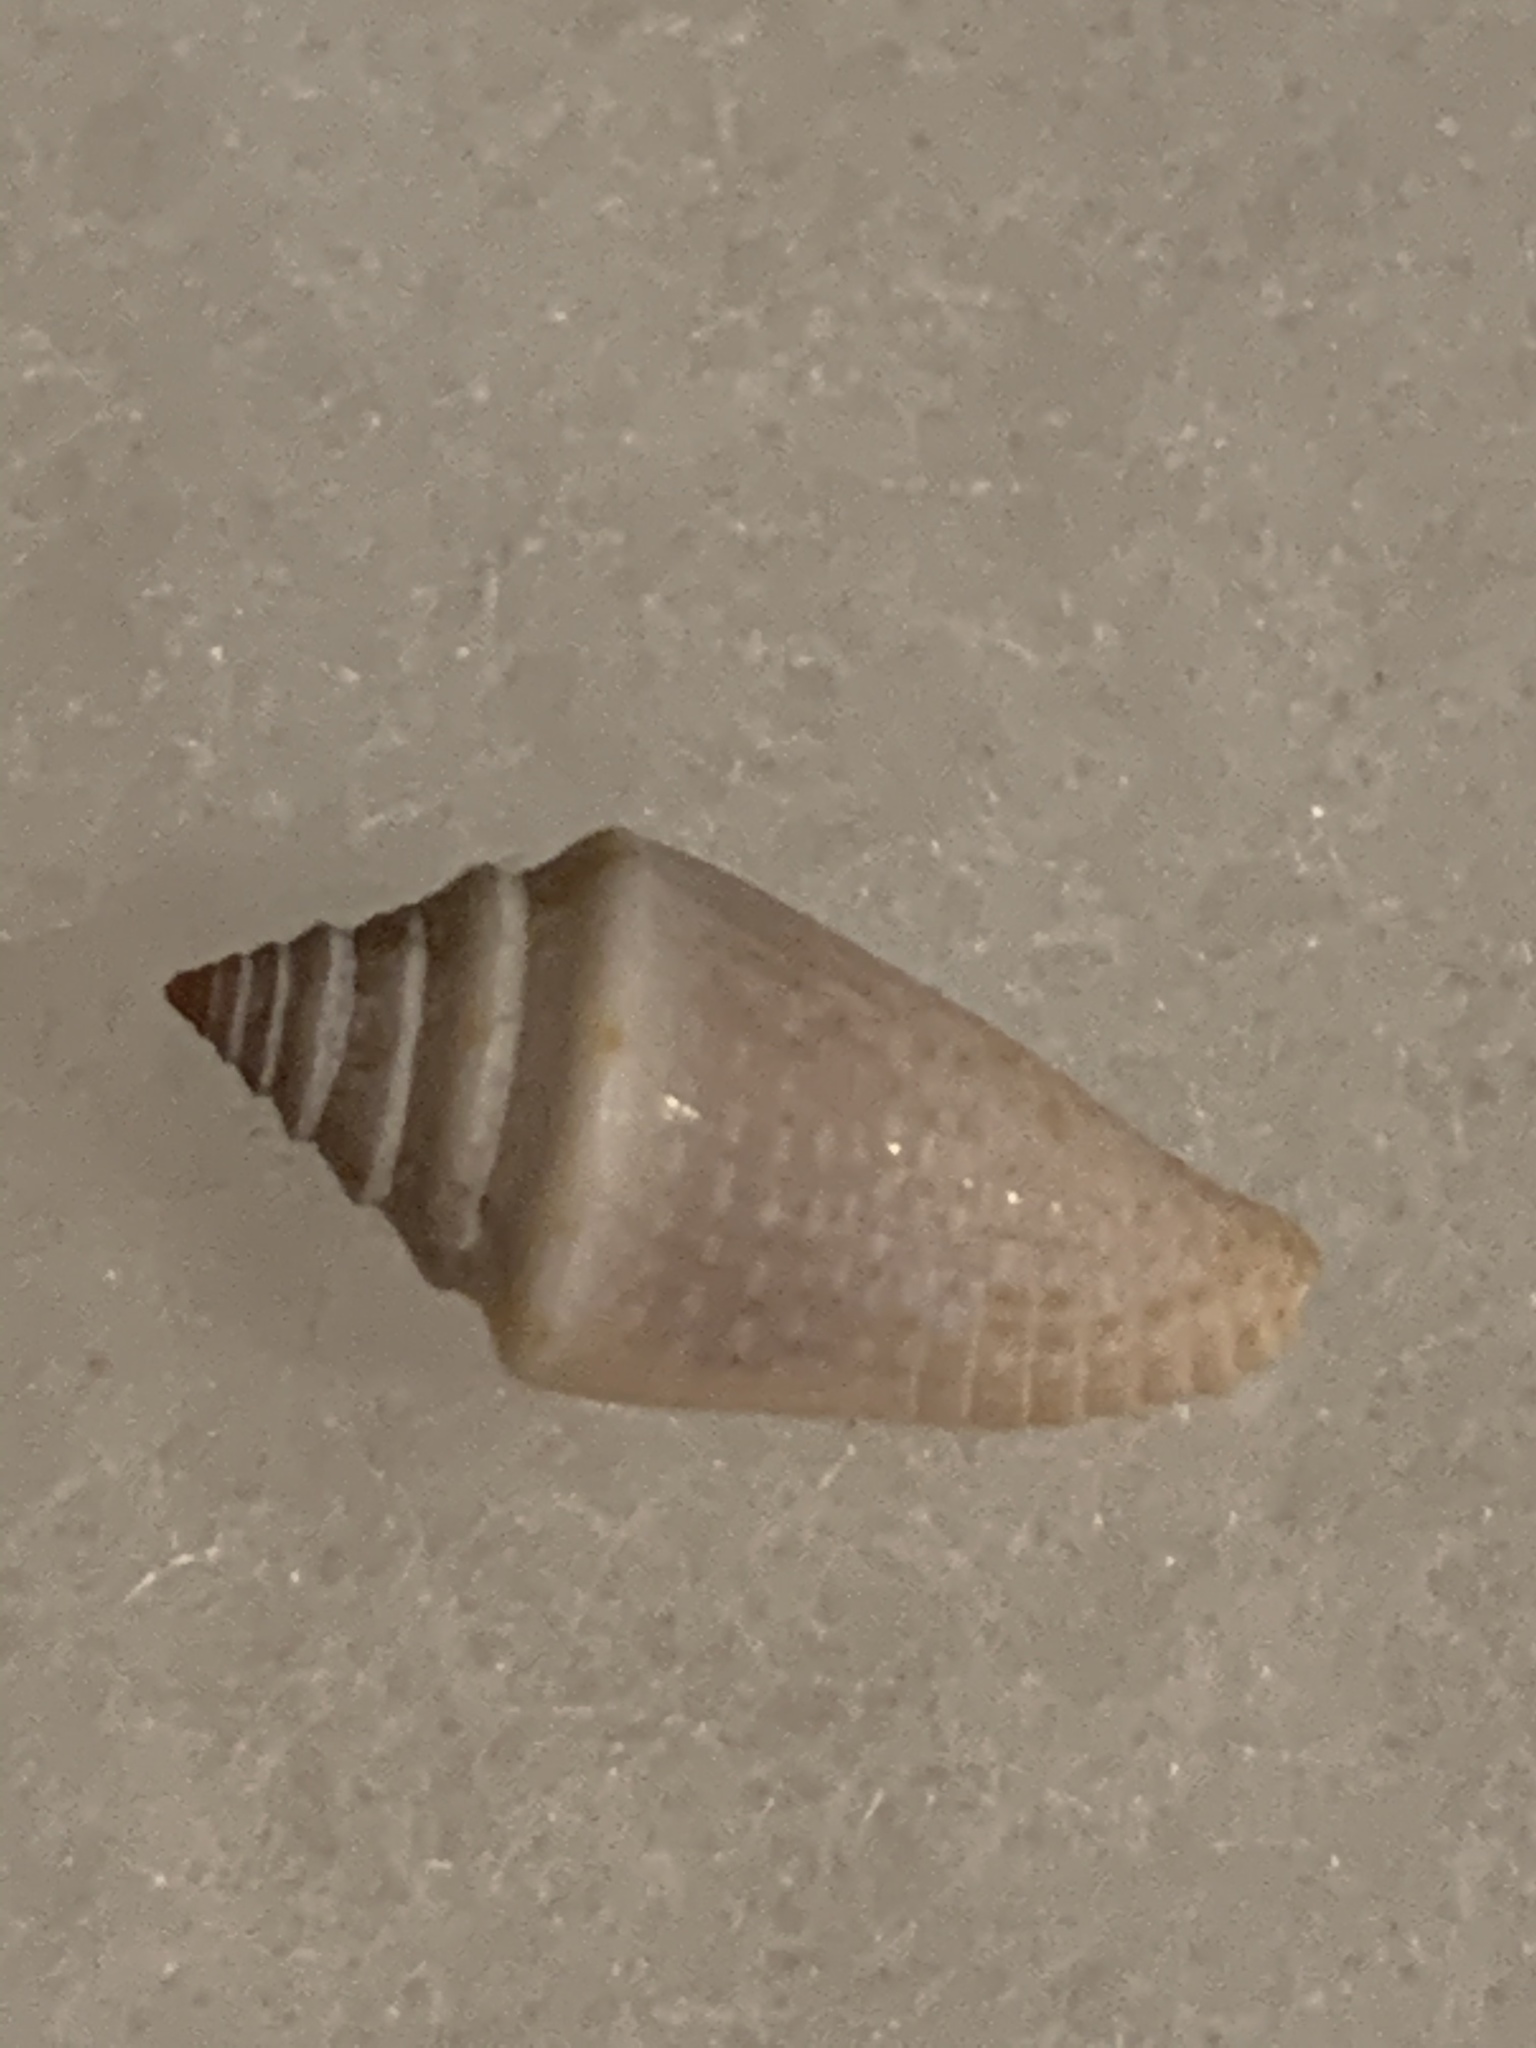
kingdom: Animalia
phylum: Mollusca
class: Gastropoda
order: Neogastropoda
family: Conidae
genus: Conasprella
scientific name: Conasprella stearnsii
